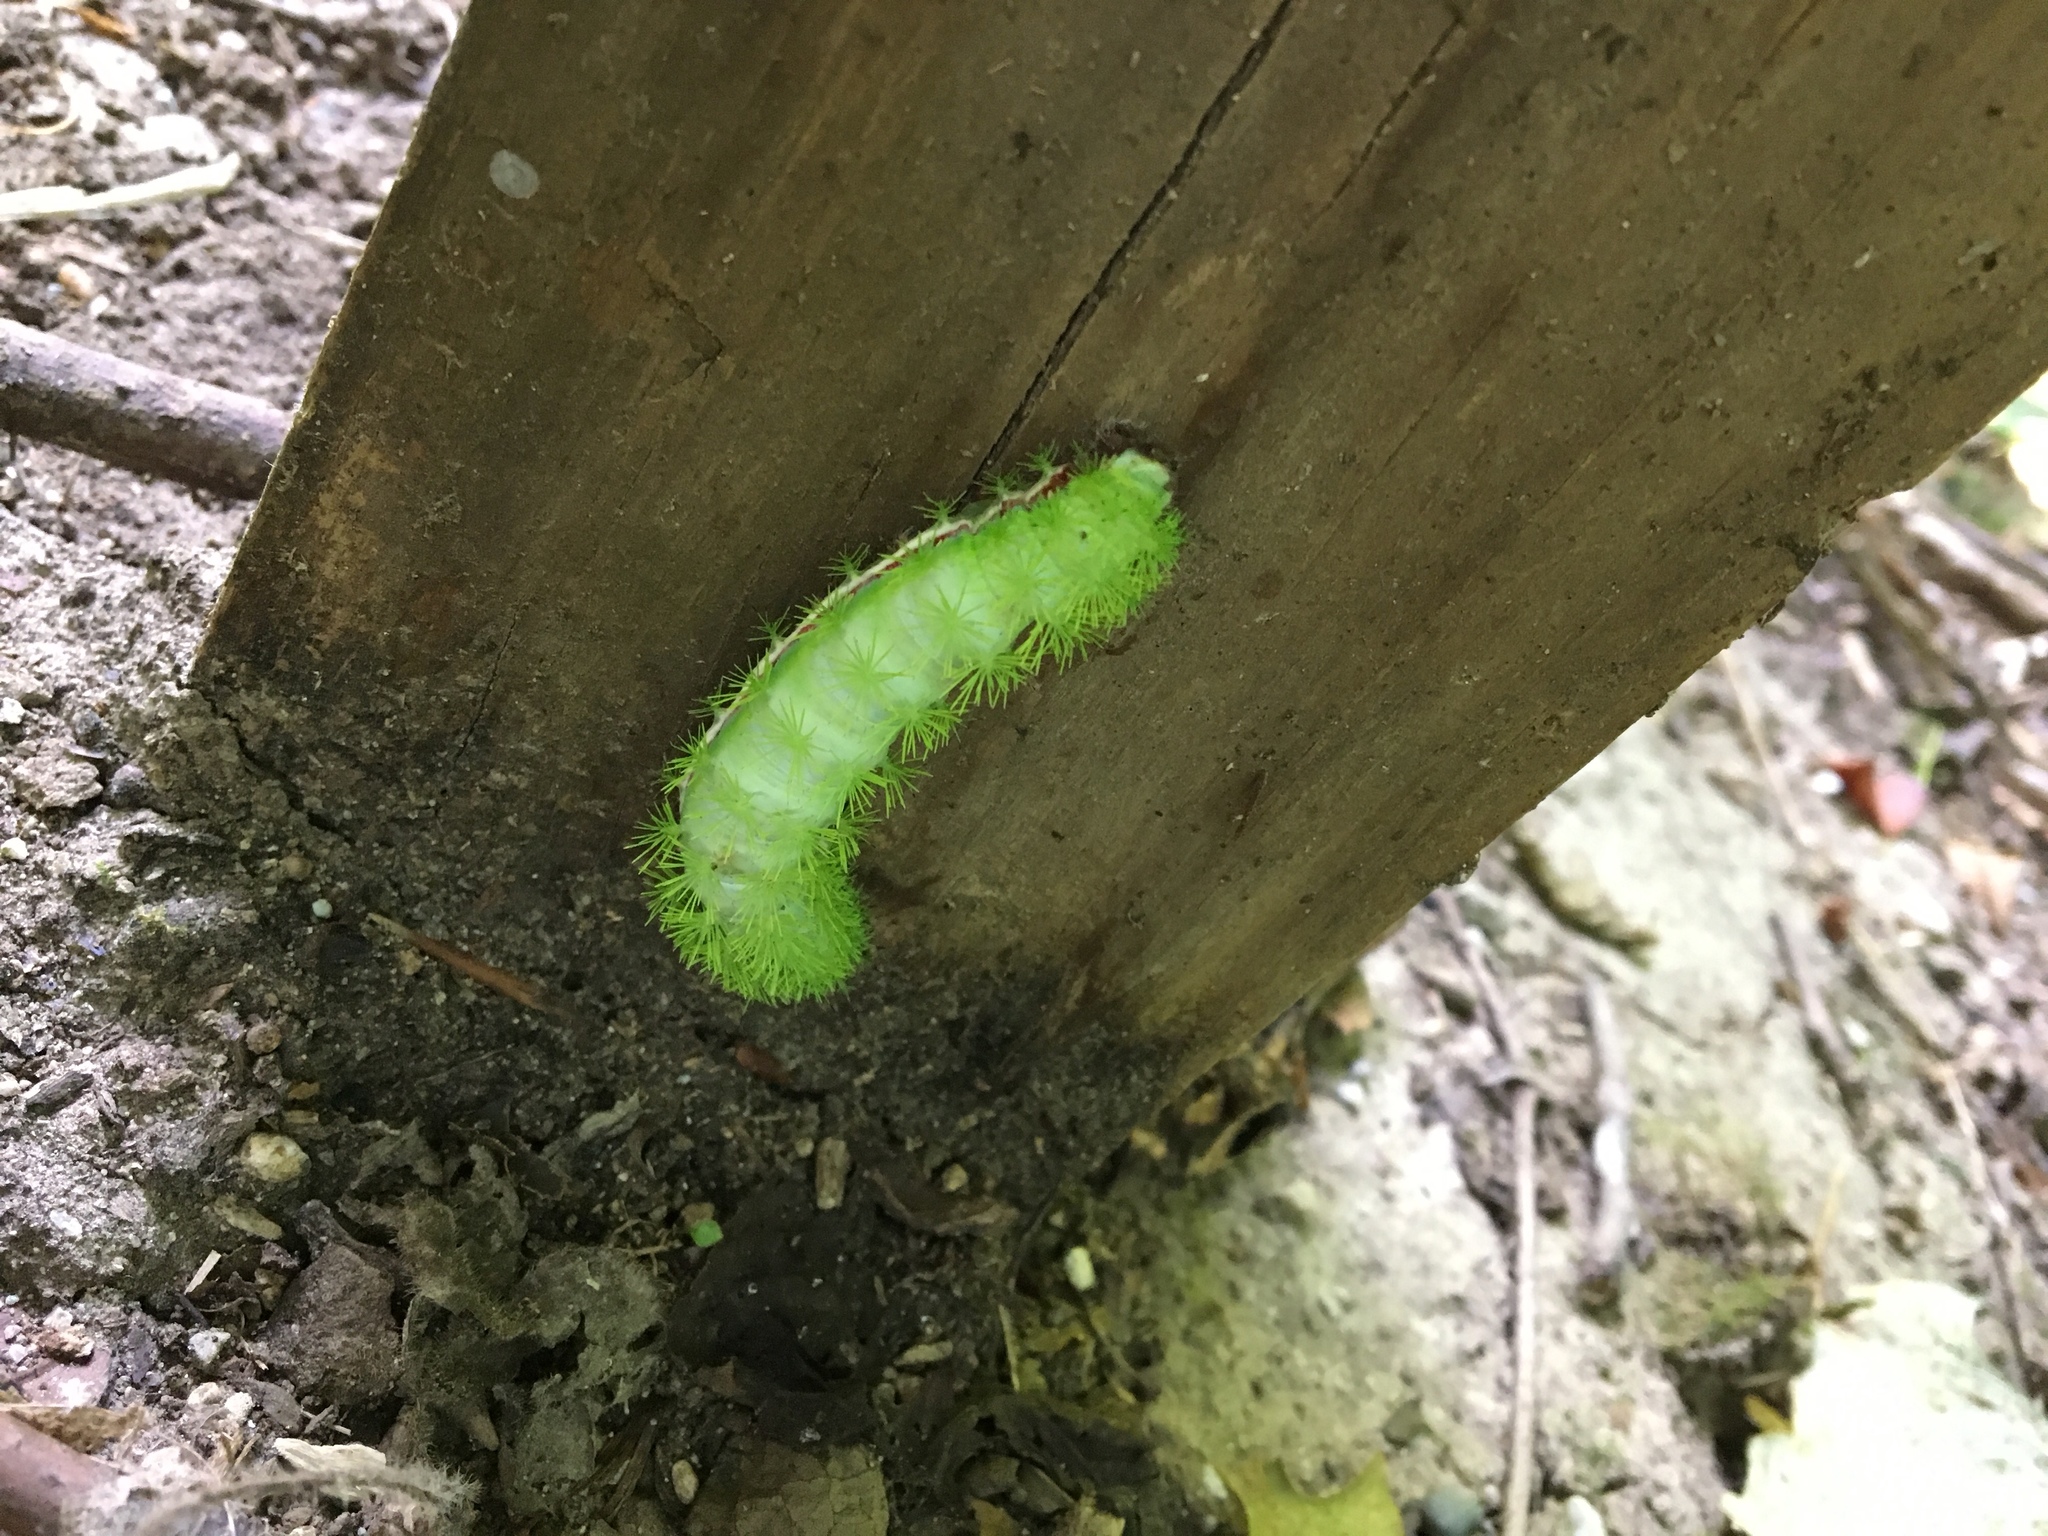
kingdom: Animalia
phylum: Arthropoda
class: Insecta
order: Lepidoptera
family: Saturniidae
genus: Automeris
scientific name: Automeris io
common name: Io moth
